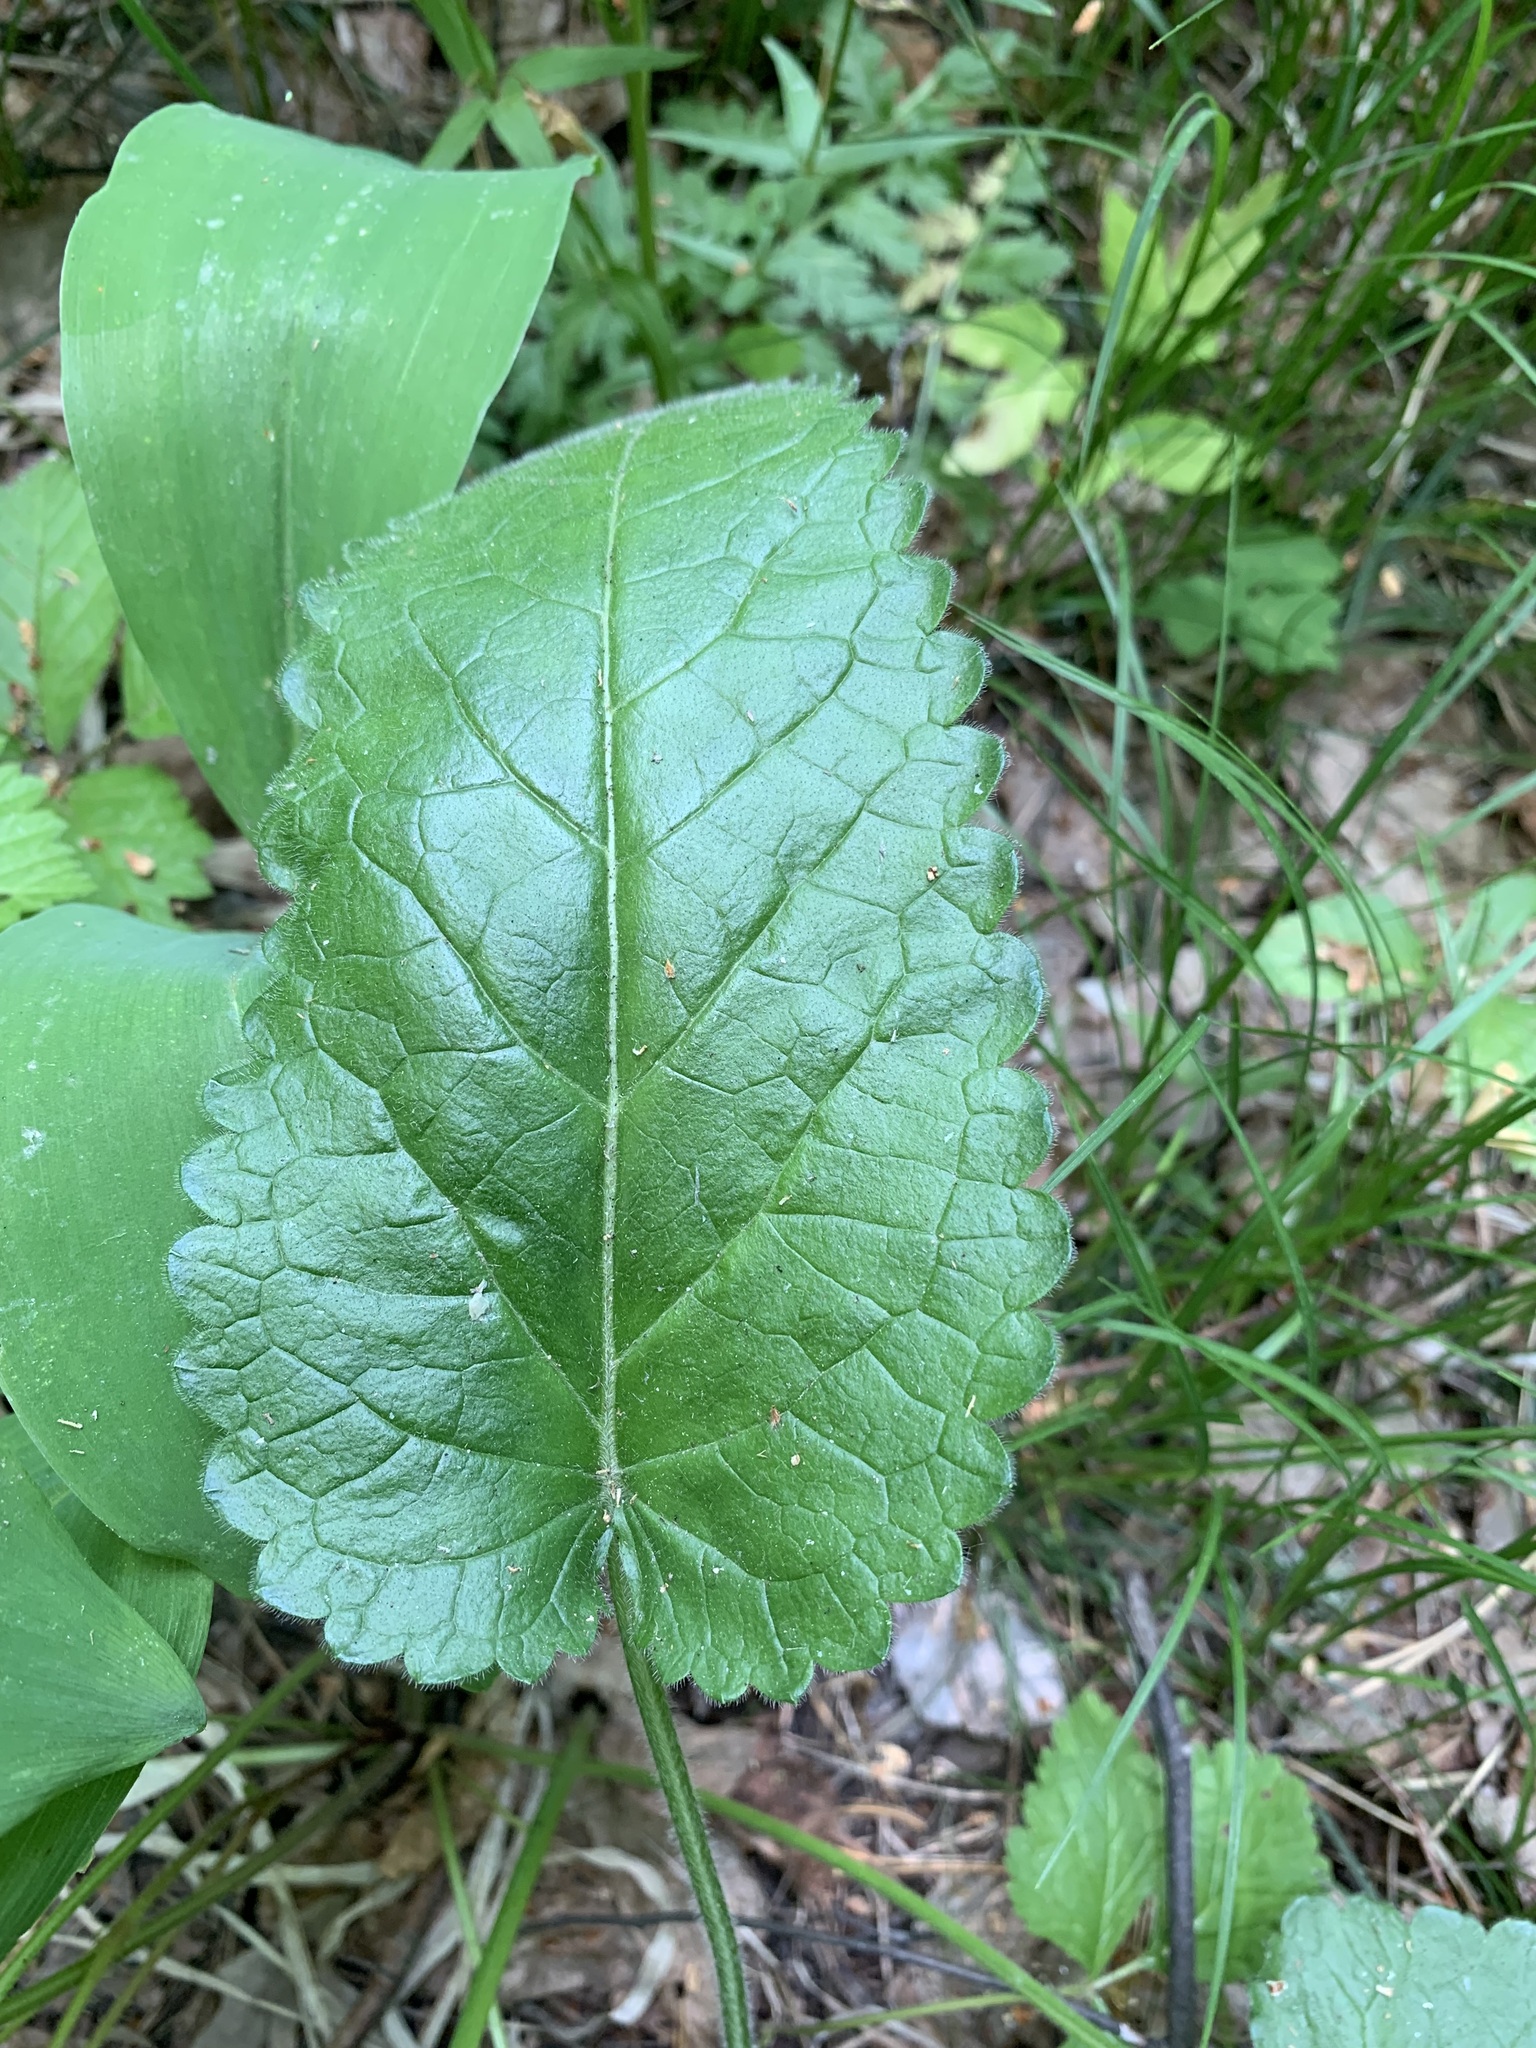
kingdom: Plantae
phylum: Tracheophyta
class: Magnoliopsida
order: Lamiales
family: Lamiaceae
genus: Betonica
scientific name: Betonica officinalis
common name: Bishop's-wort
